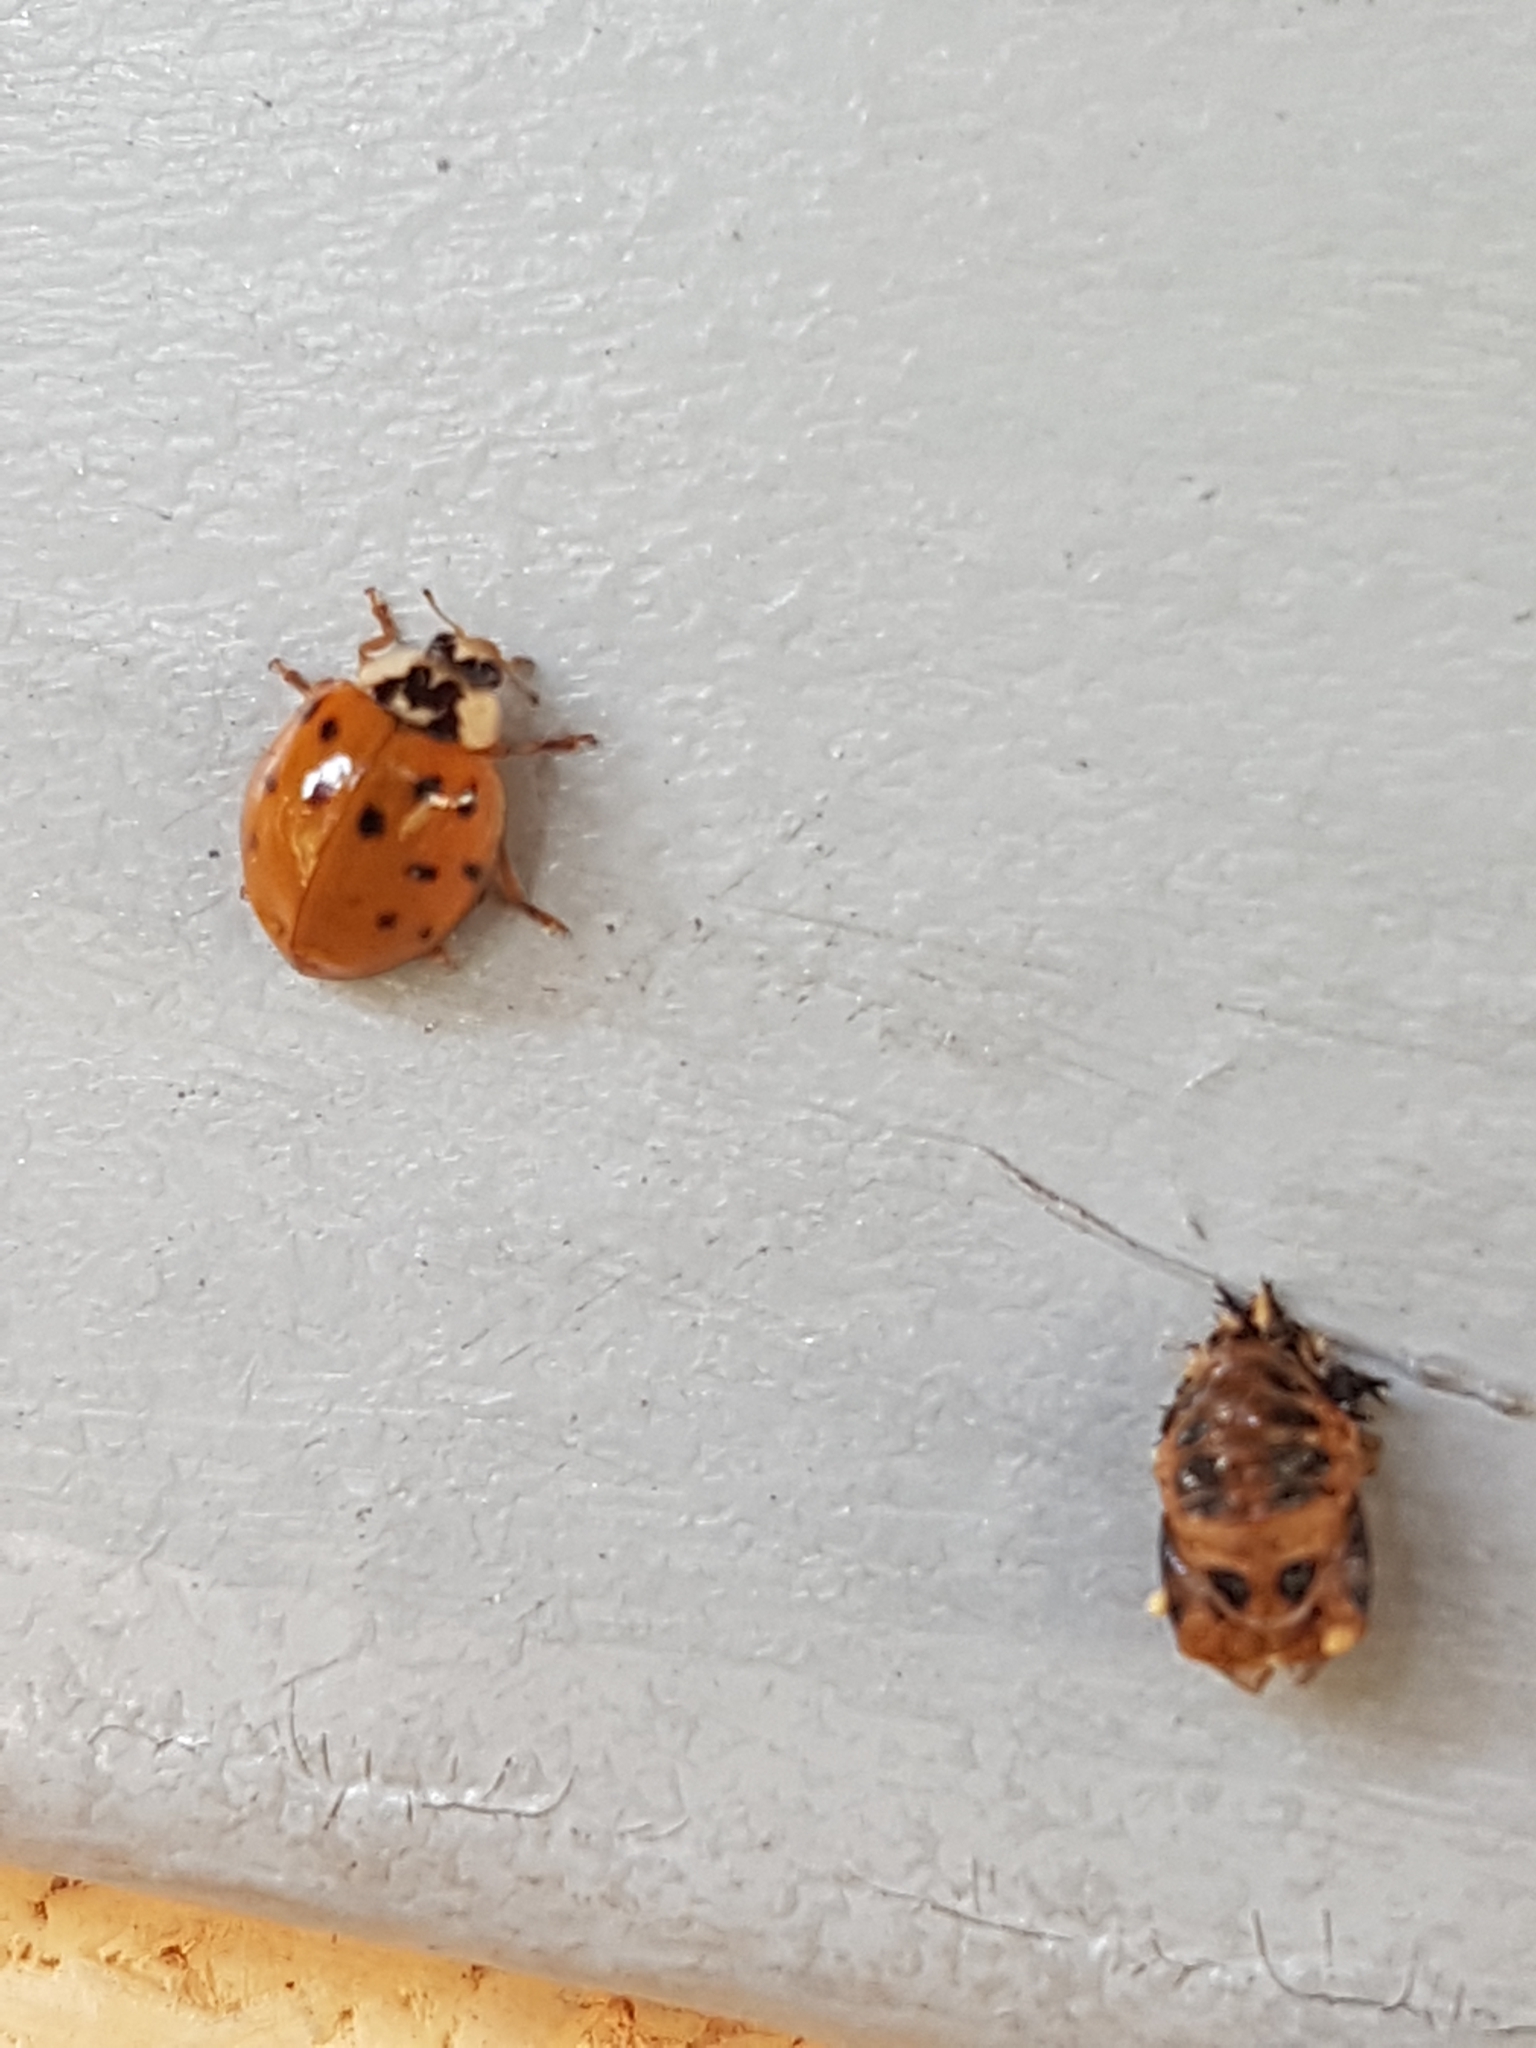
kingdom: Animalia
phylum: Arthropoda
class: Insecta
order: Coleoptera
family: Coccinellidae
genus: Harmonia
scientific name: Harmonia axyridis
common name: Harlequin ladybird
